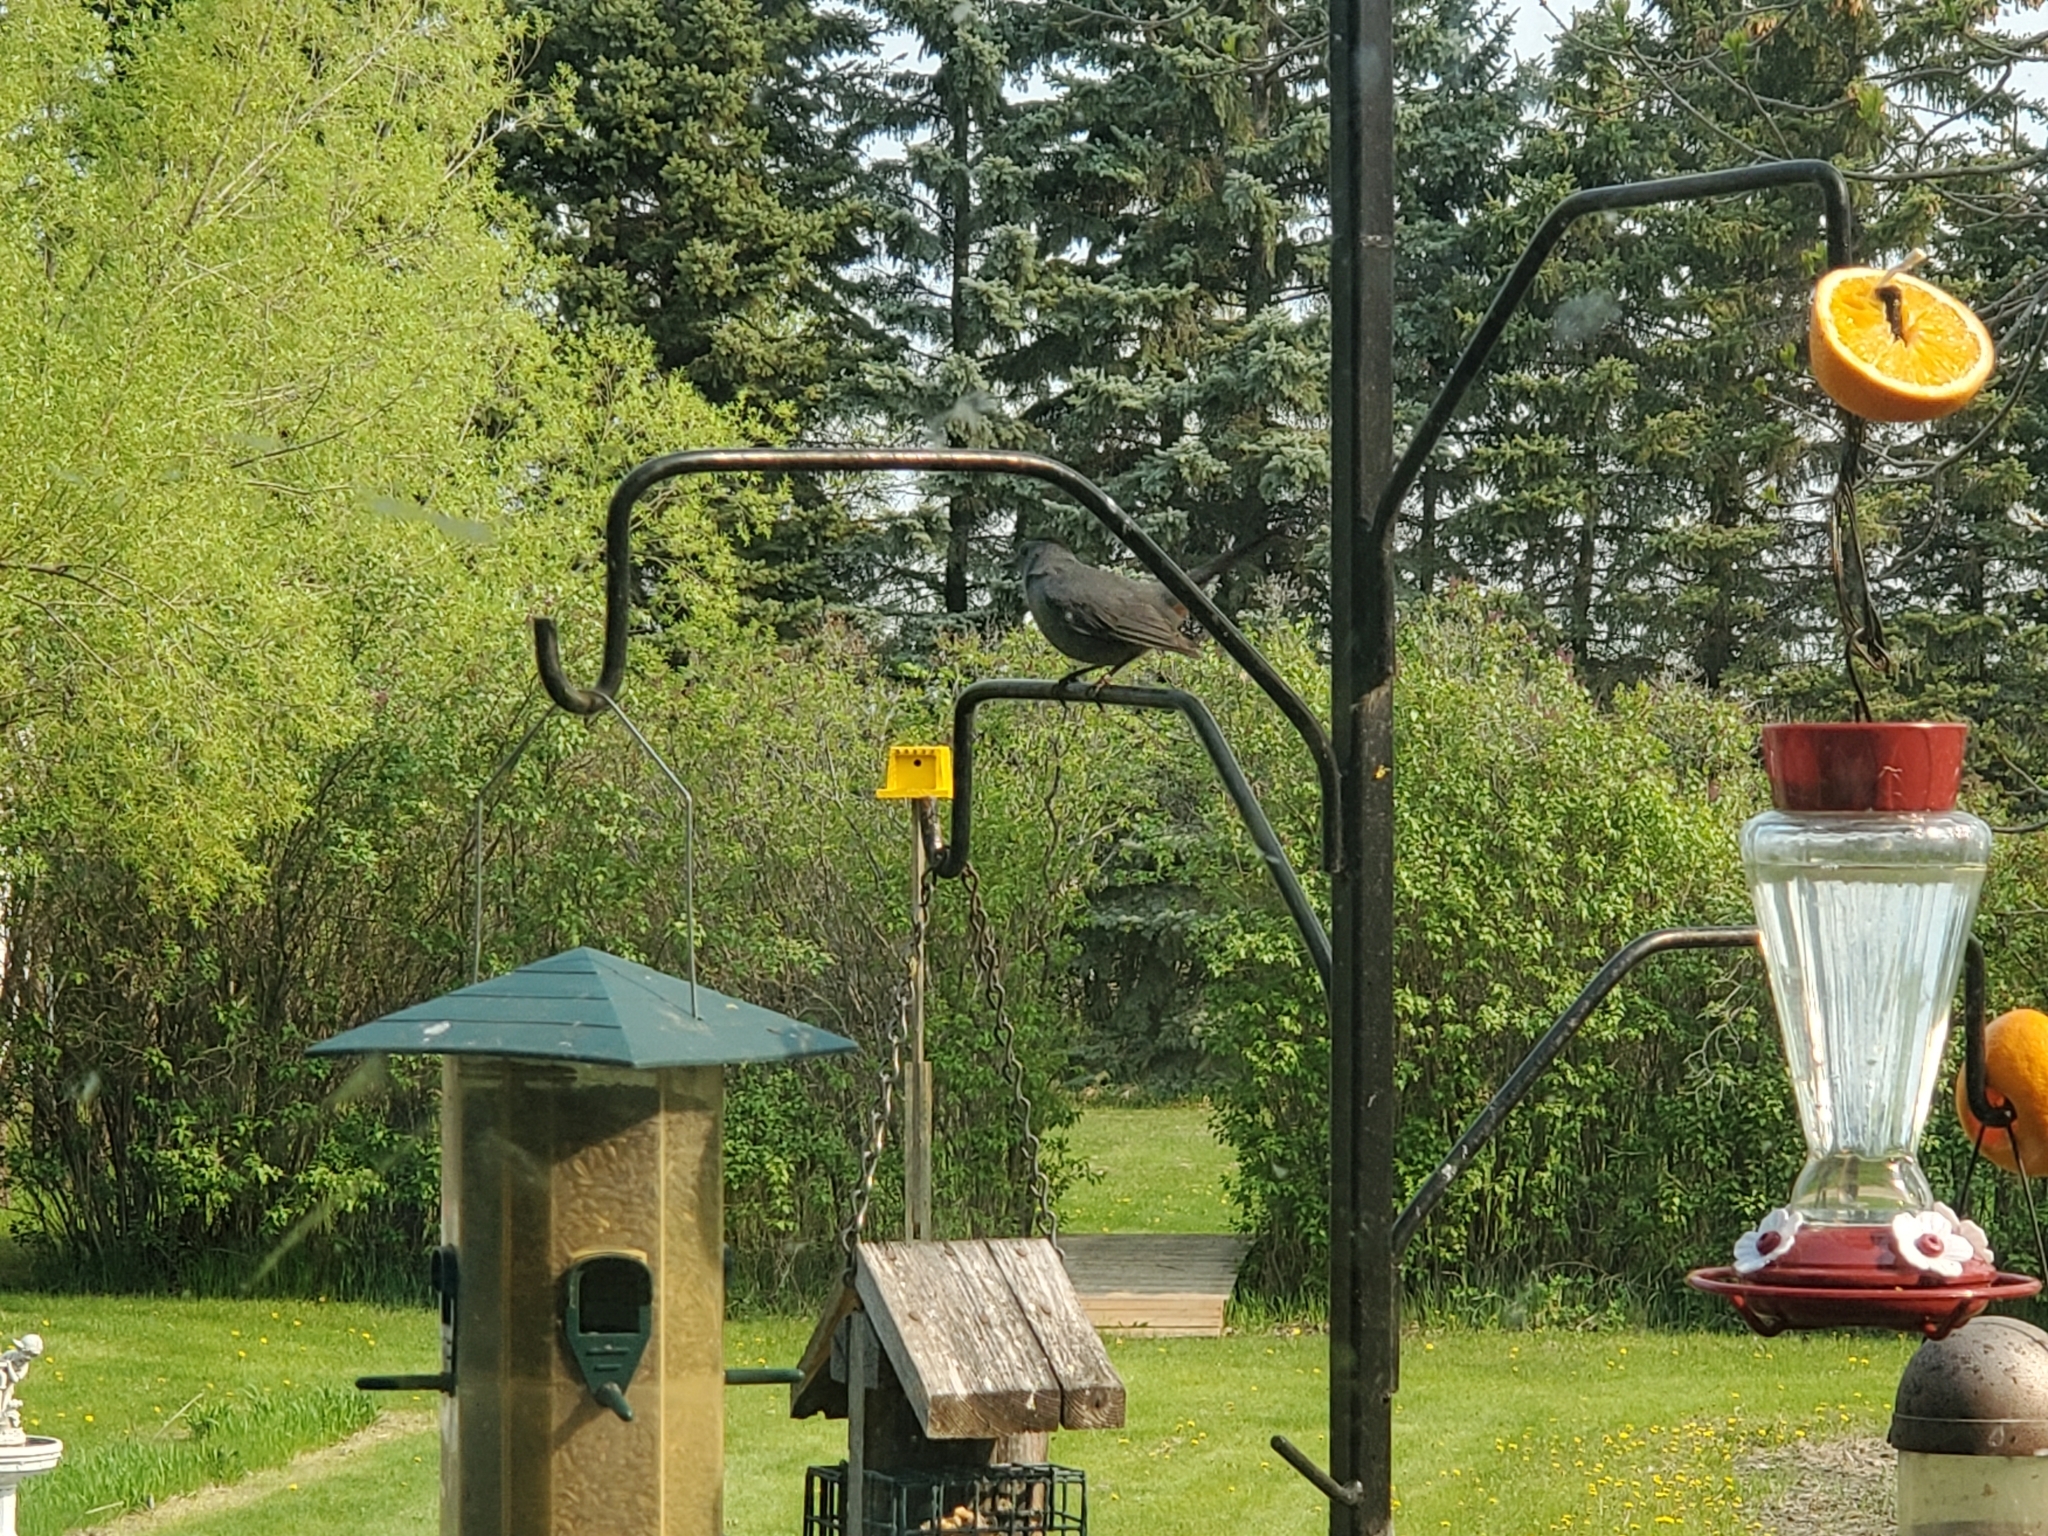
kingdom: Animalia
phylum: Chordata
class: Aves
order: Passeriformes
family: Mimidae
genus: Dumetella
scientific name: Dumetella carolinensis
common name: Gray catbird
